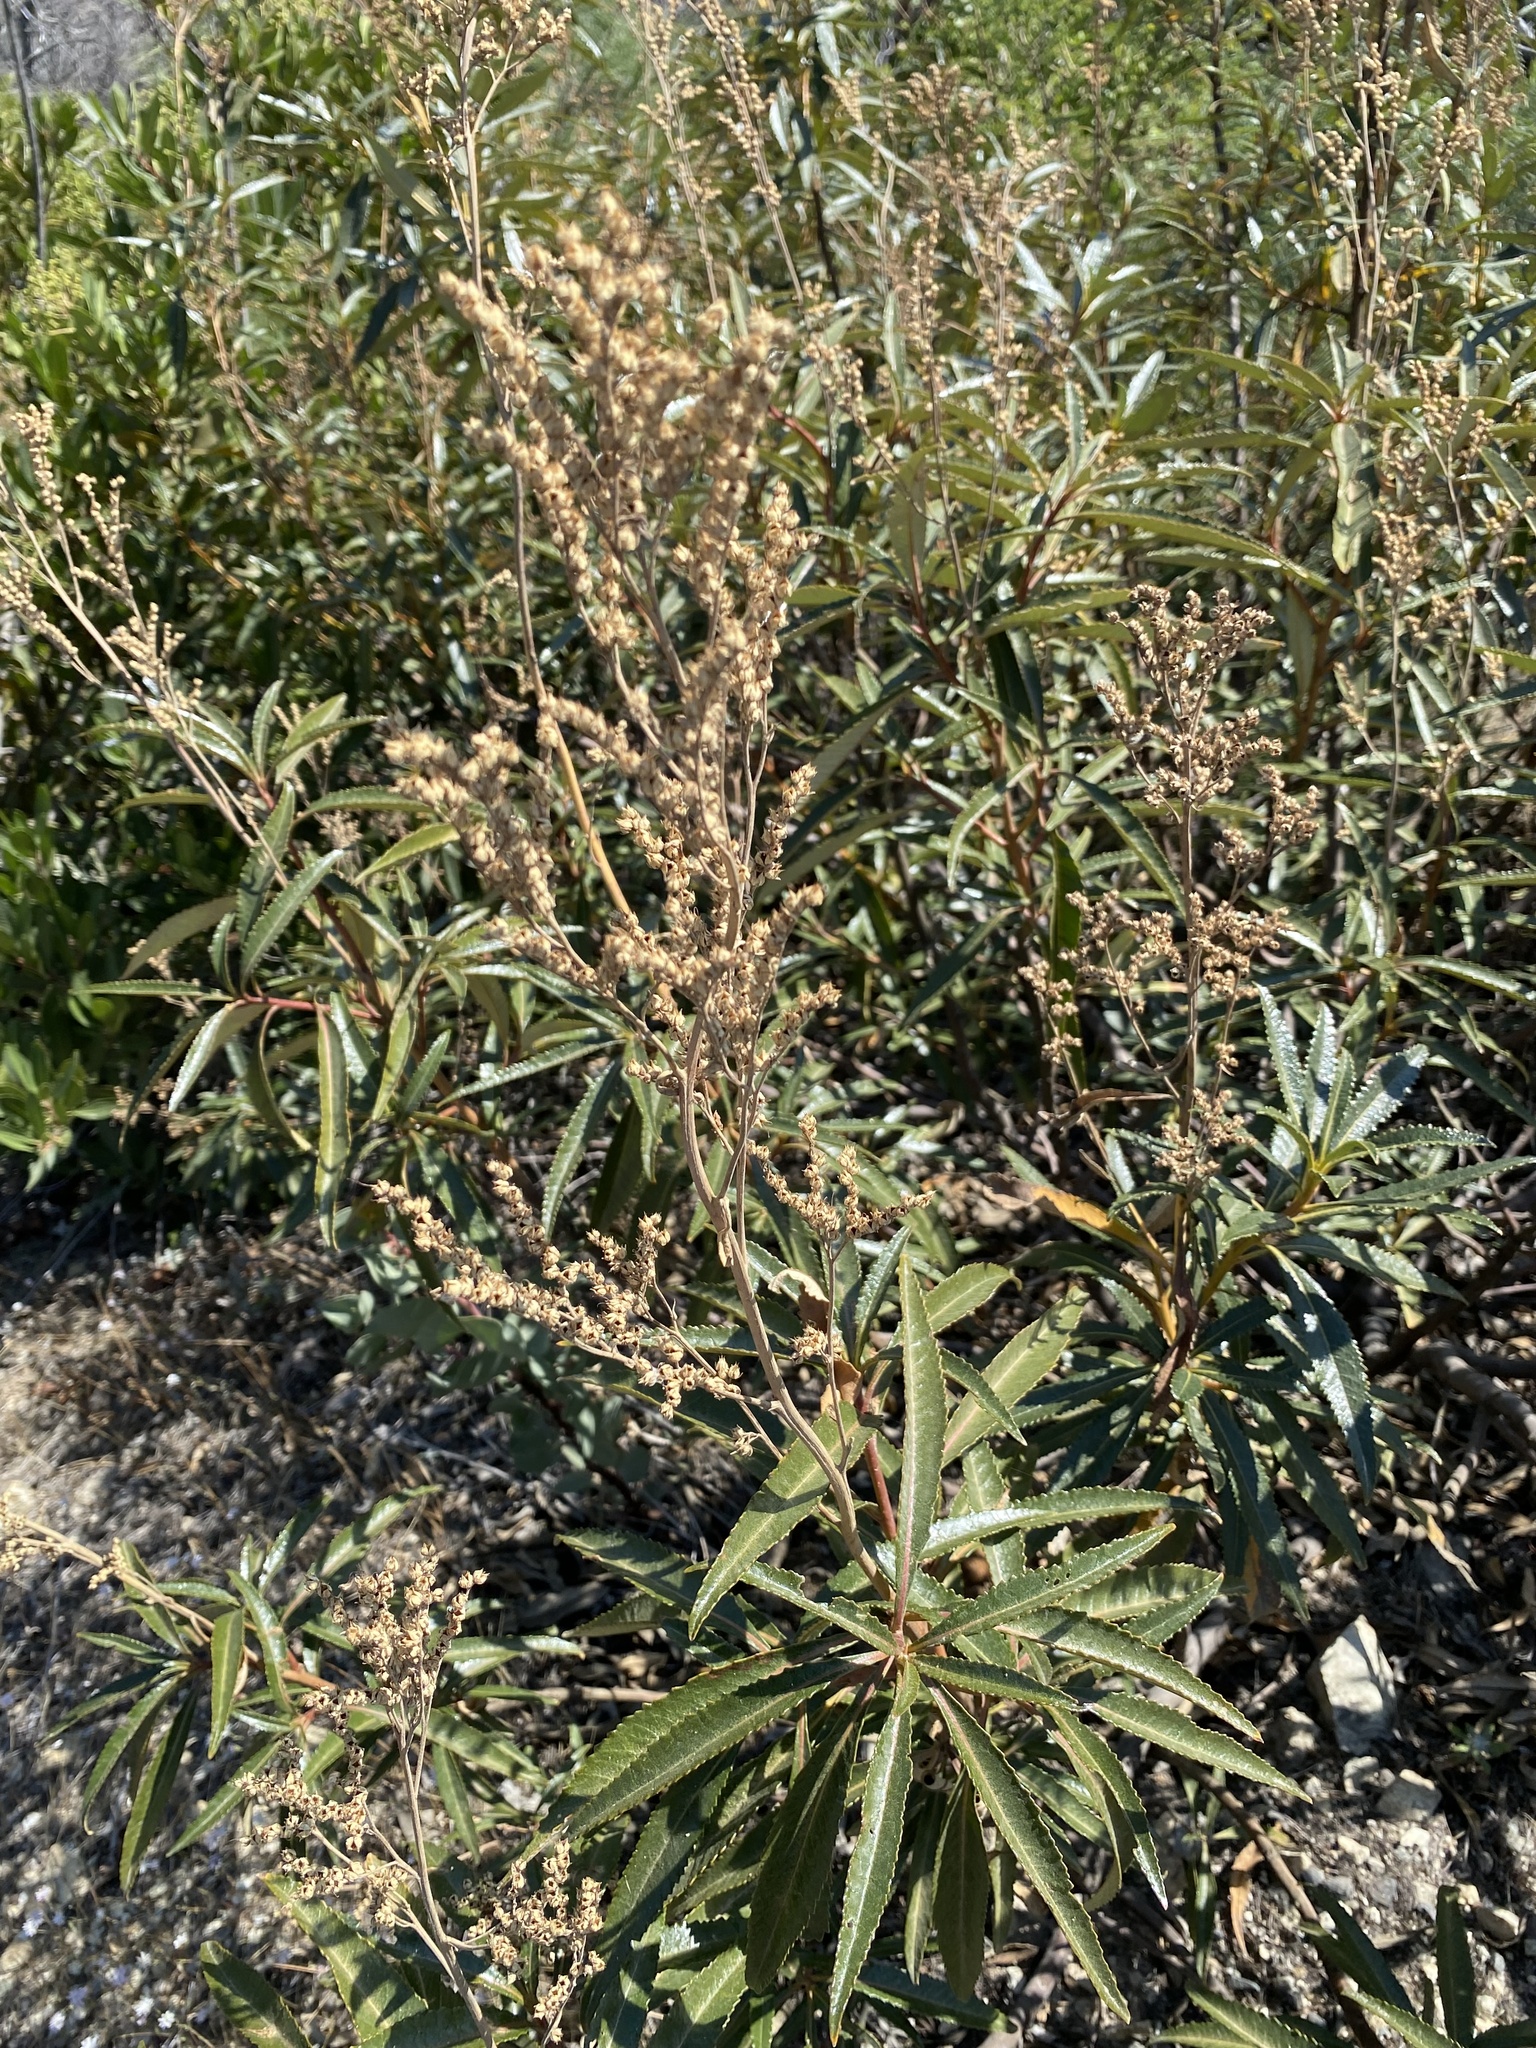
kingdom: Plantae
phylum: Tracheophyta
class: Magnoliopsida
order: Boraginales
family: Namaceae
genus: Eriodictyon
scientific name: Eriodictyon californicum
